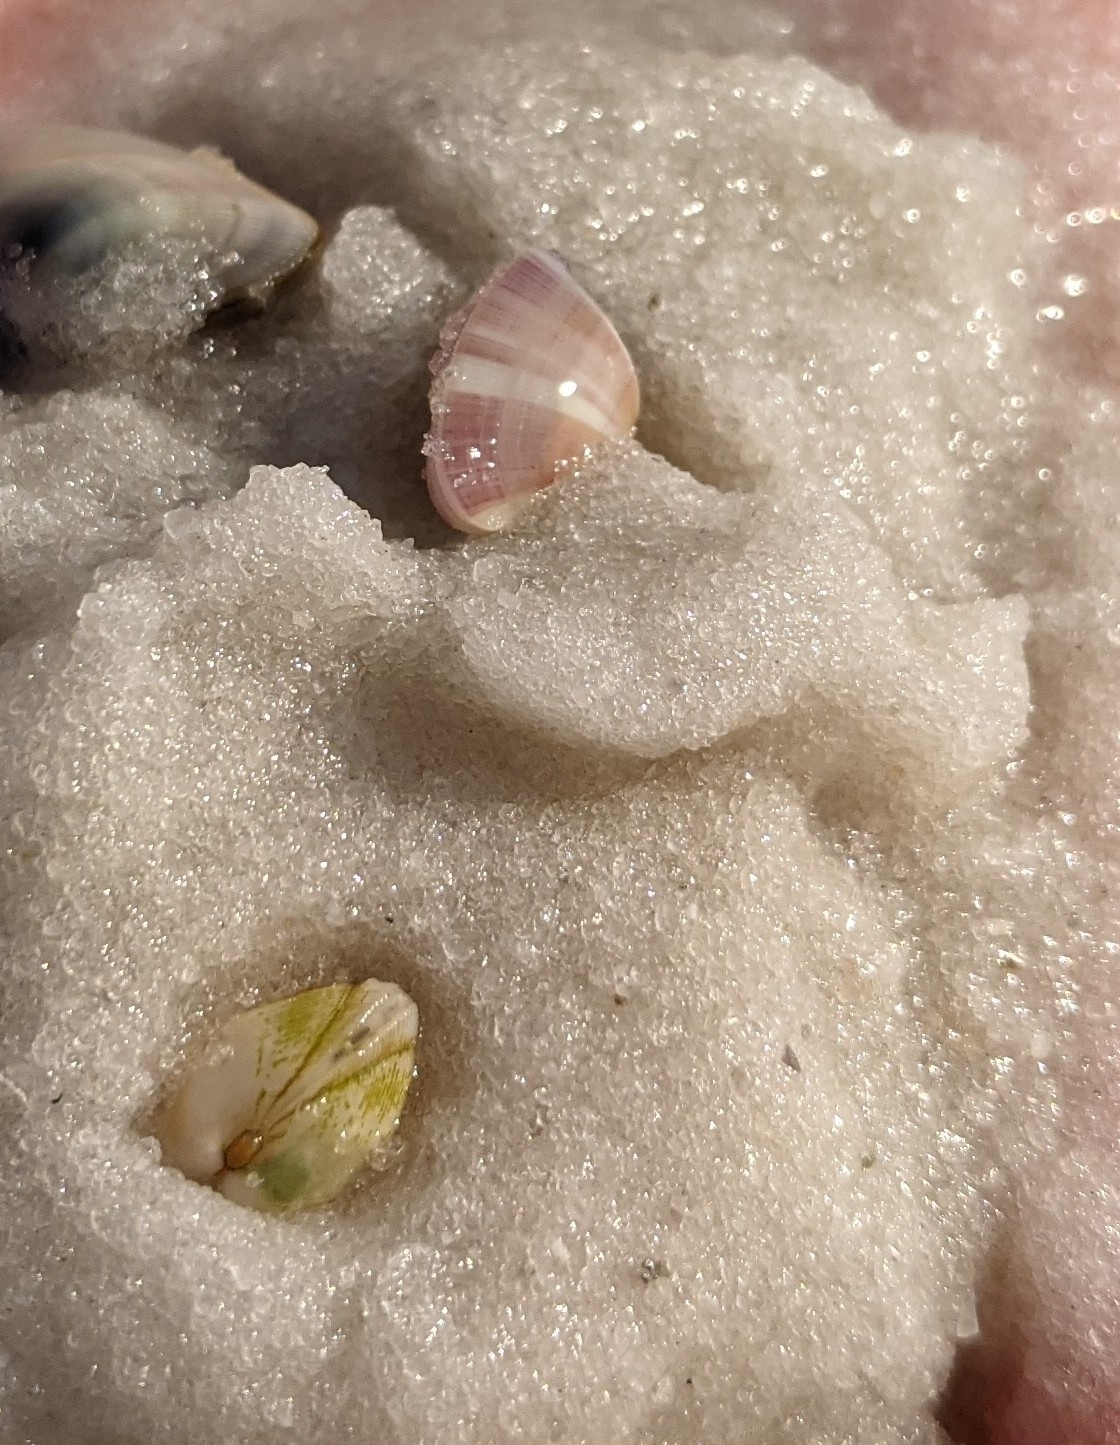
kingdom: Animalia
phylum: Mollusca
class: Bivalvia
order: Cardiida
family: Donacidae
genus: Donax
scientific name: Donax variabilis
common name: Butterfly shell
